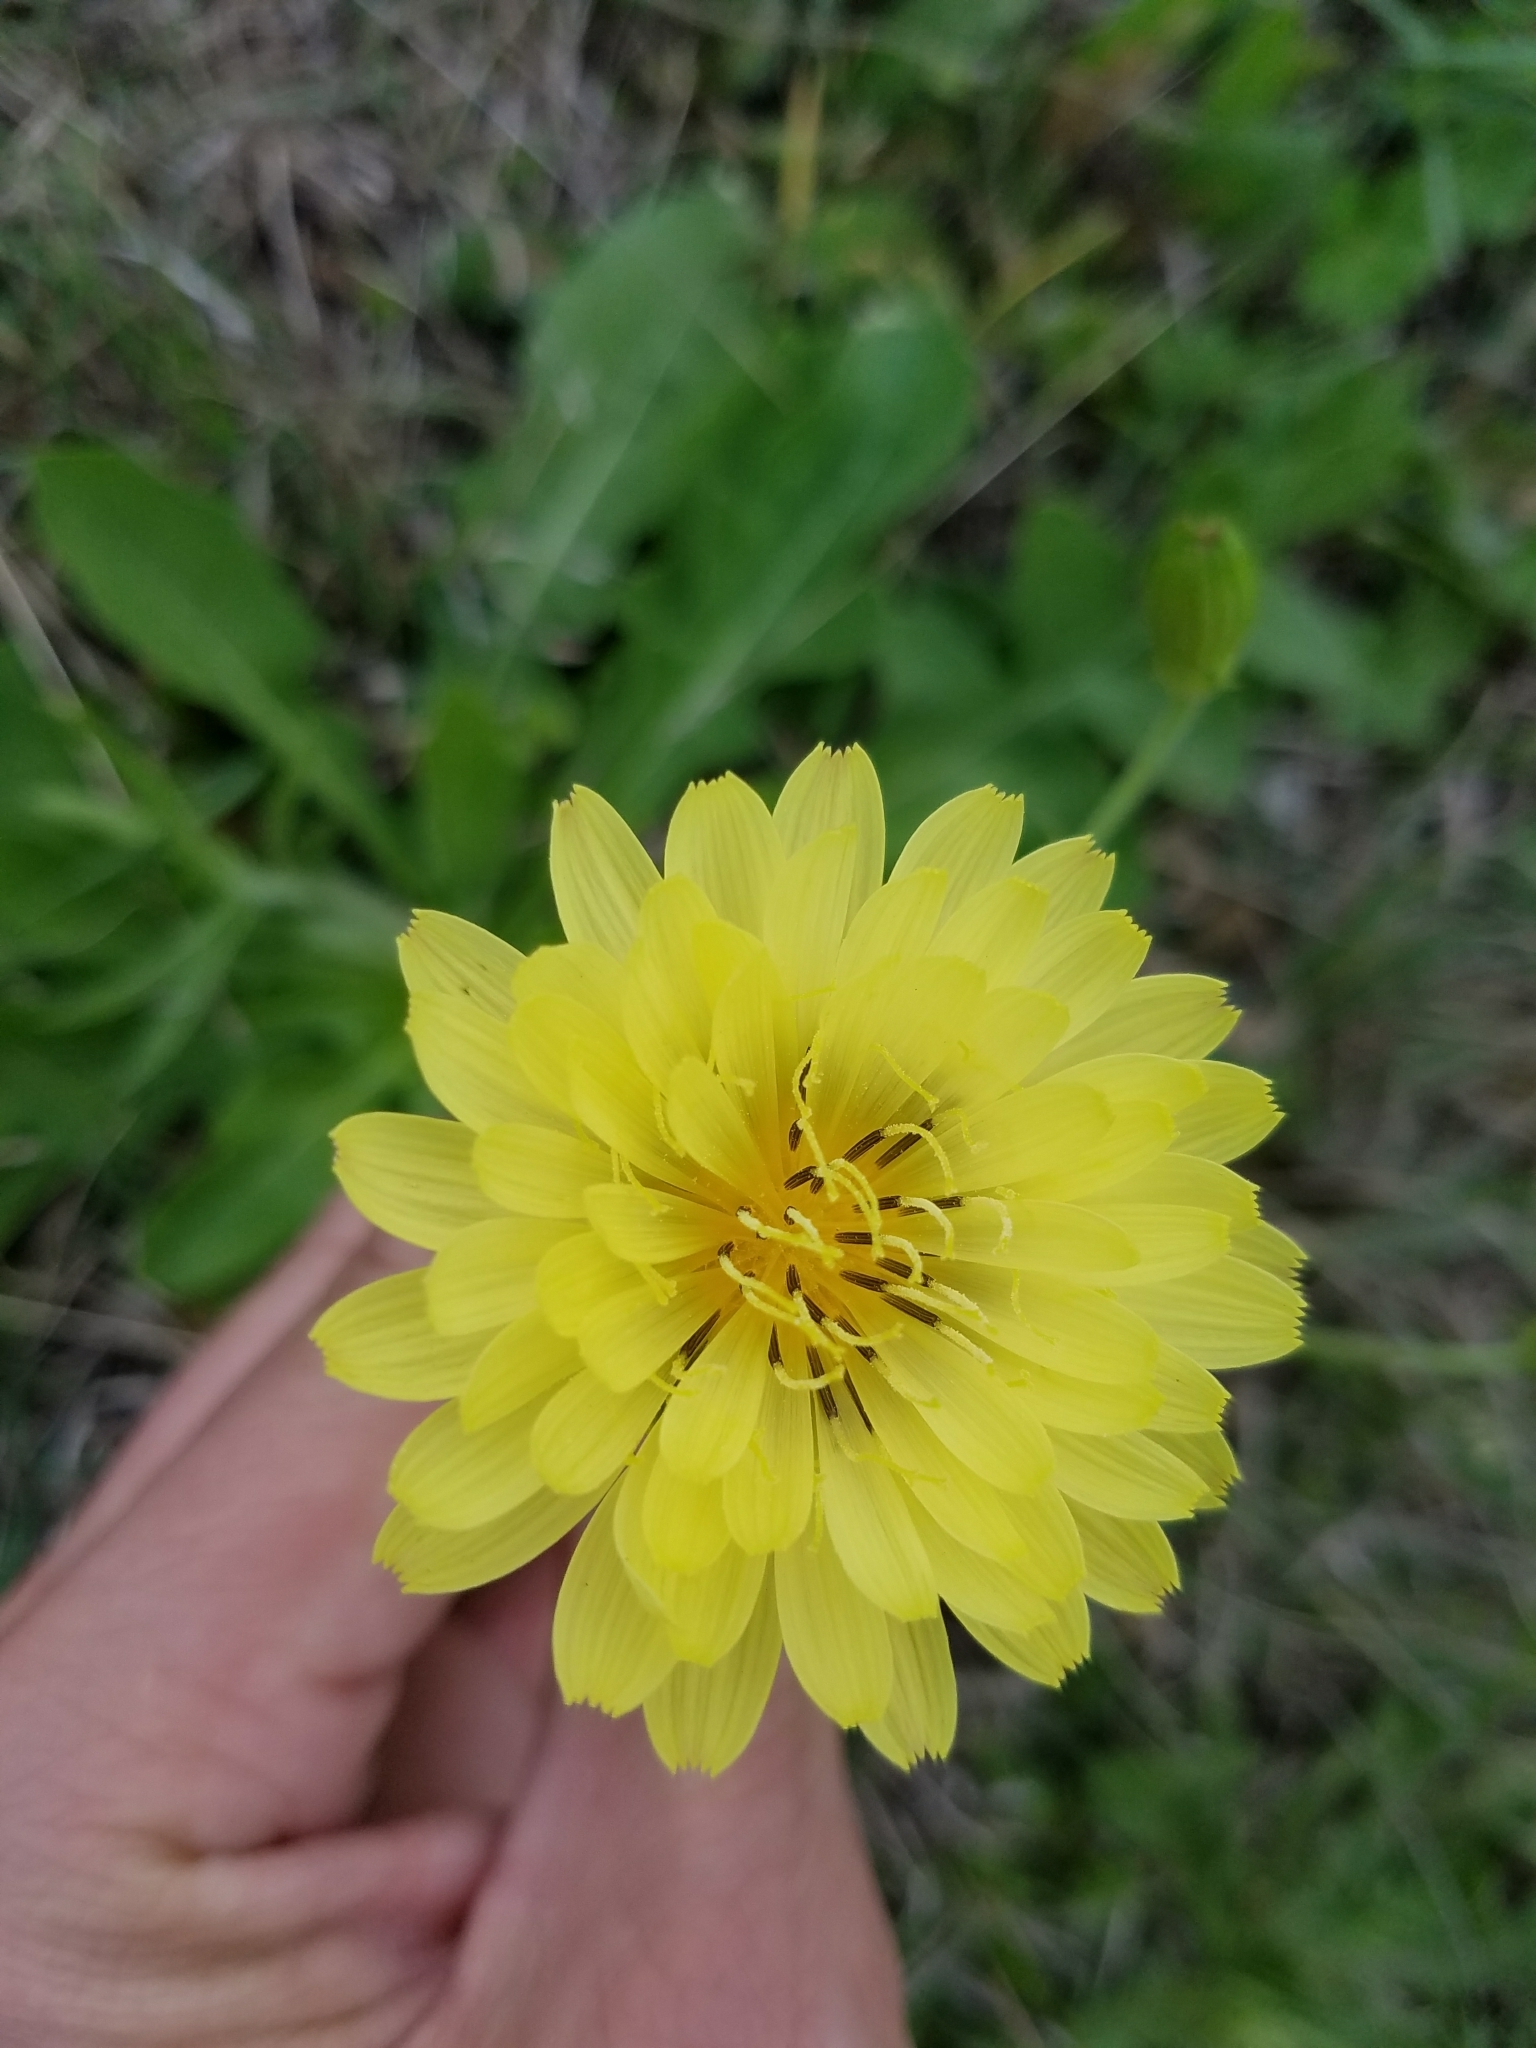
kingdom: Plantae
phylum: Tracheophyta
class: Magnoliopsida
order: Asterales
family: Asteraceae
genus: Pyrrhopappus
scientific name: Pyrrhopappus pauciflorus
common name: Texas false dandelion
